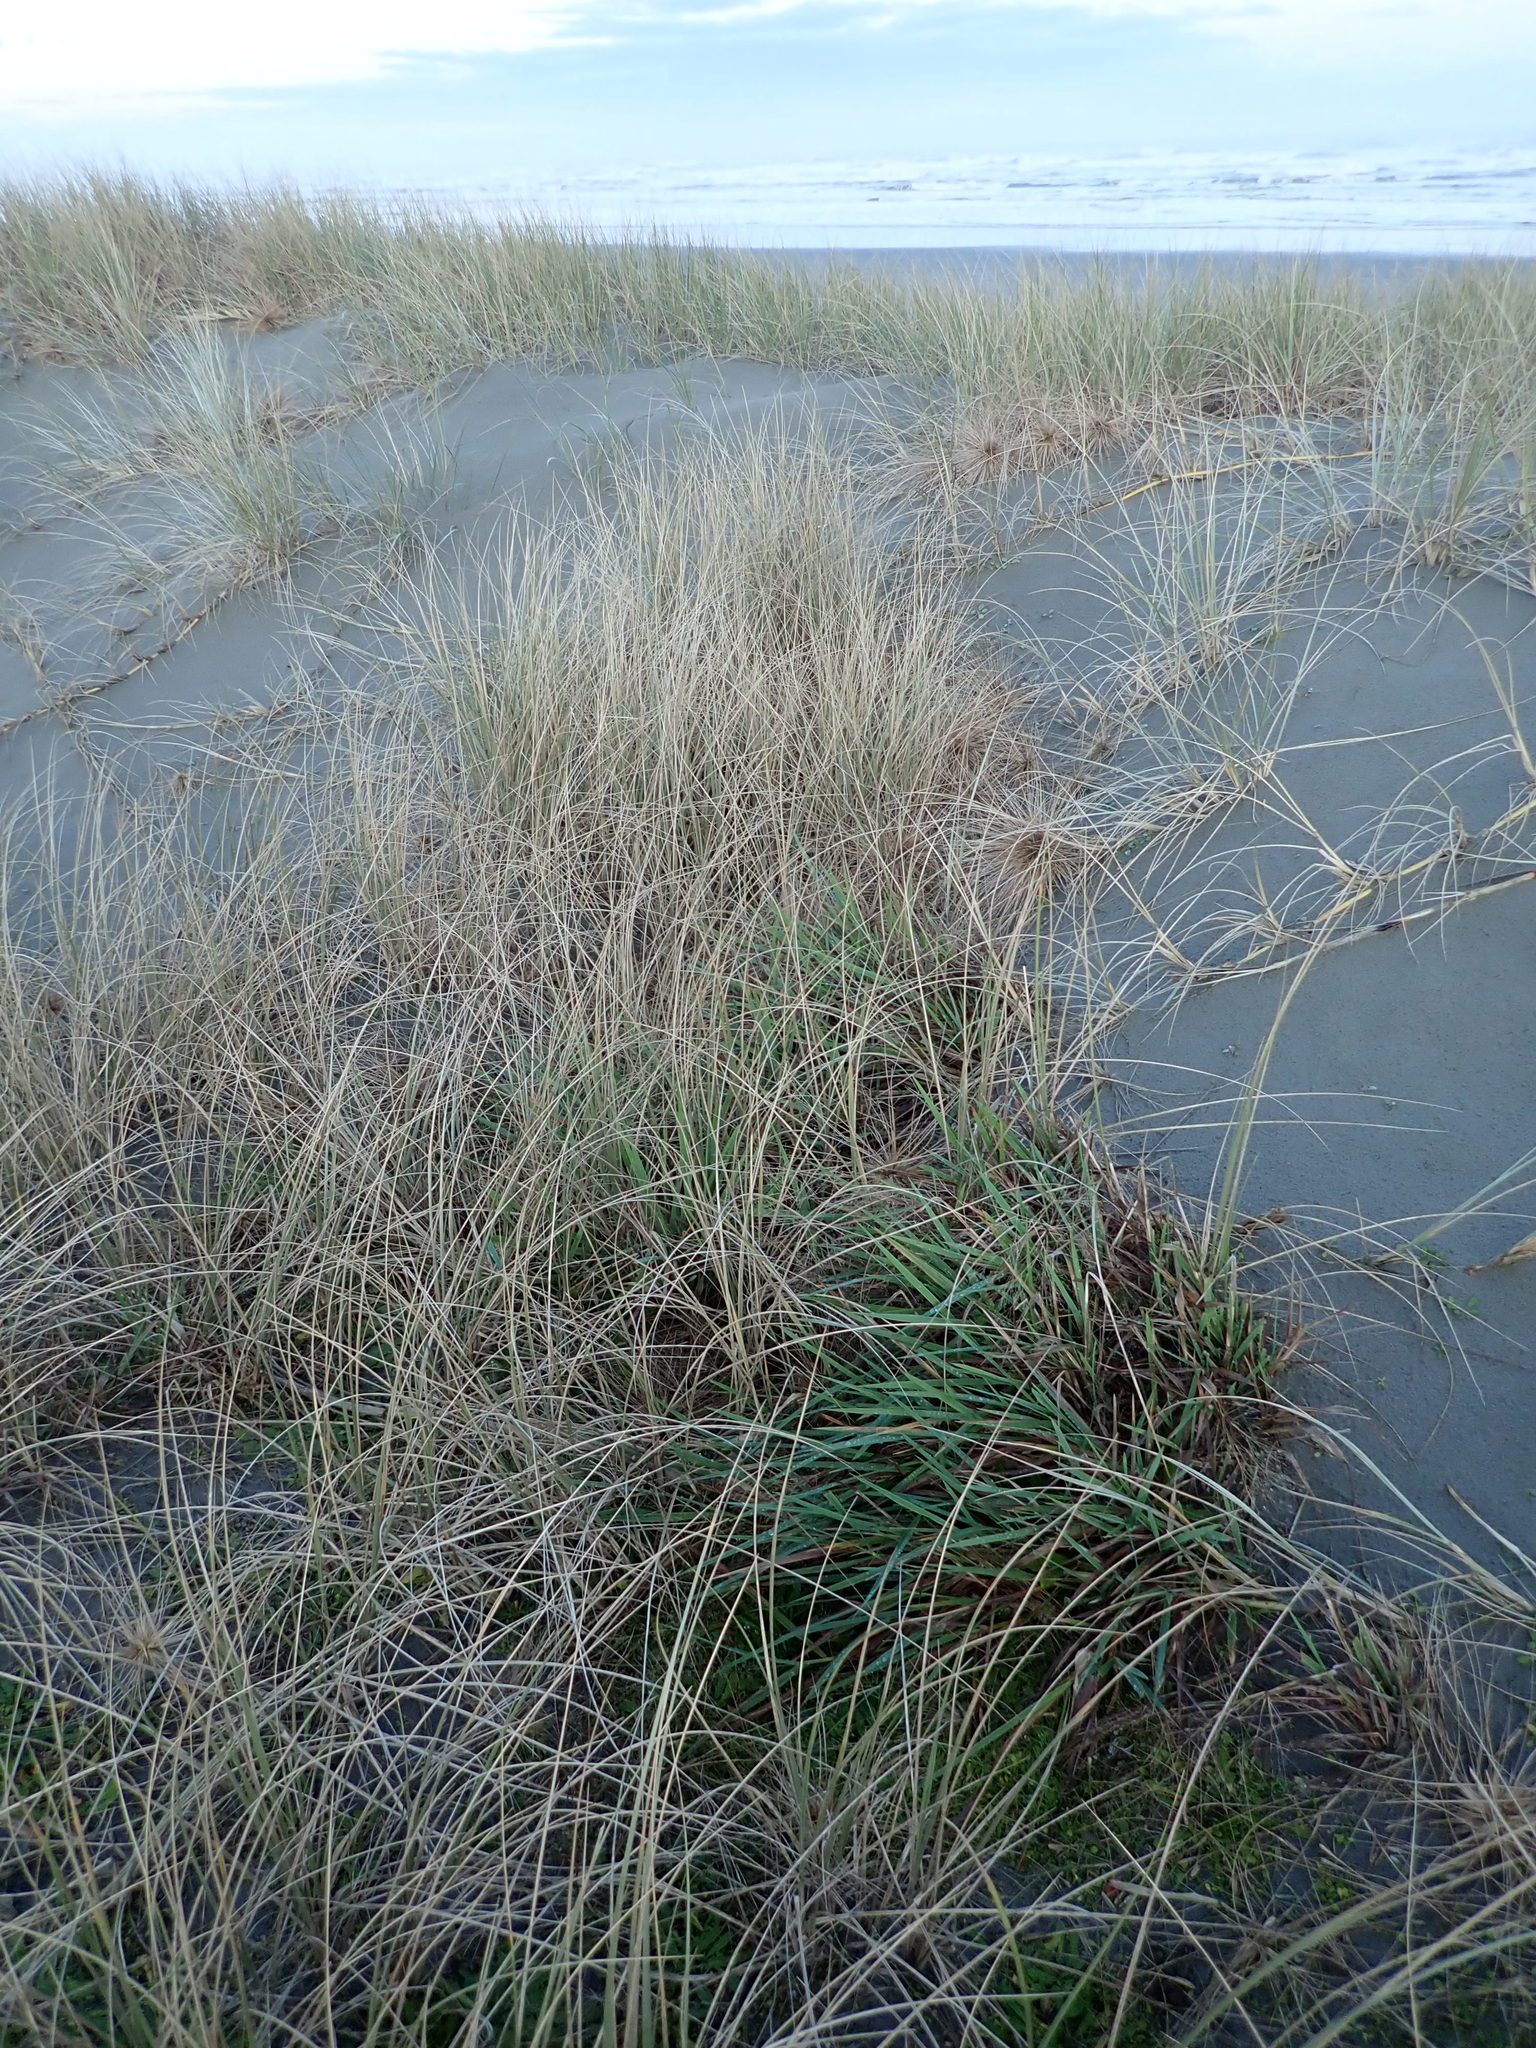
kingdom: Plantae
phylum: Tracheophyta
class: Liliopsida
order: Poales
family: Poaceae
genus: Lachnagrostis
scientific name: Lachnagrostis billardierei
